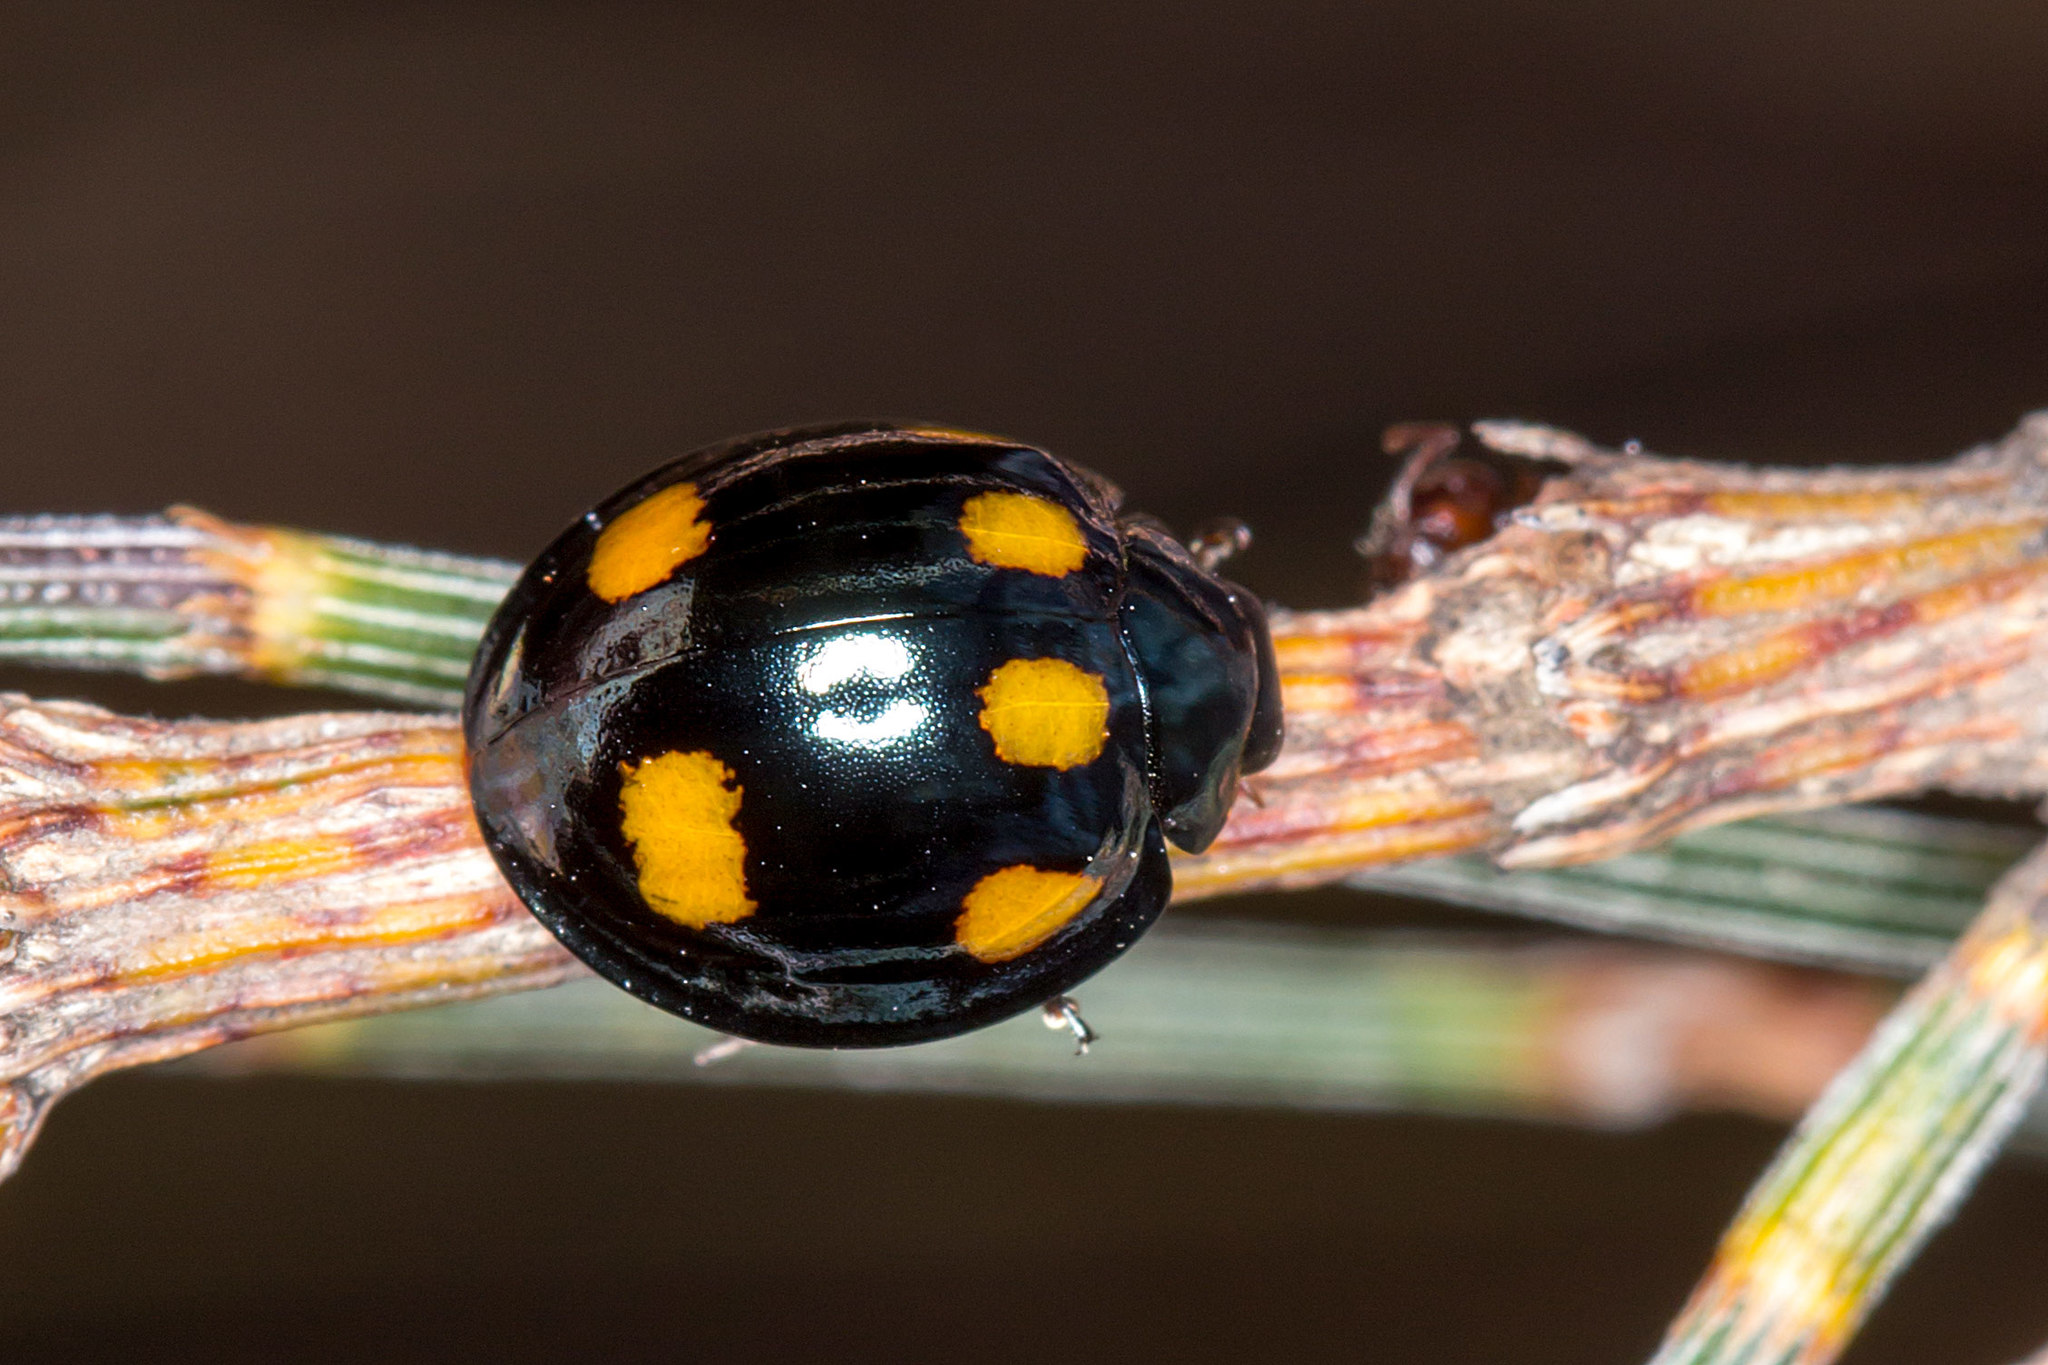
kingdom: Animalia
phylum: Arthropoda
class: Insecta
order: Coleoptera
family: Coccinellidae
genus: Orcus
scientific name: Orcus australasiae
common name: Lady beetle
